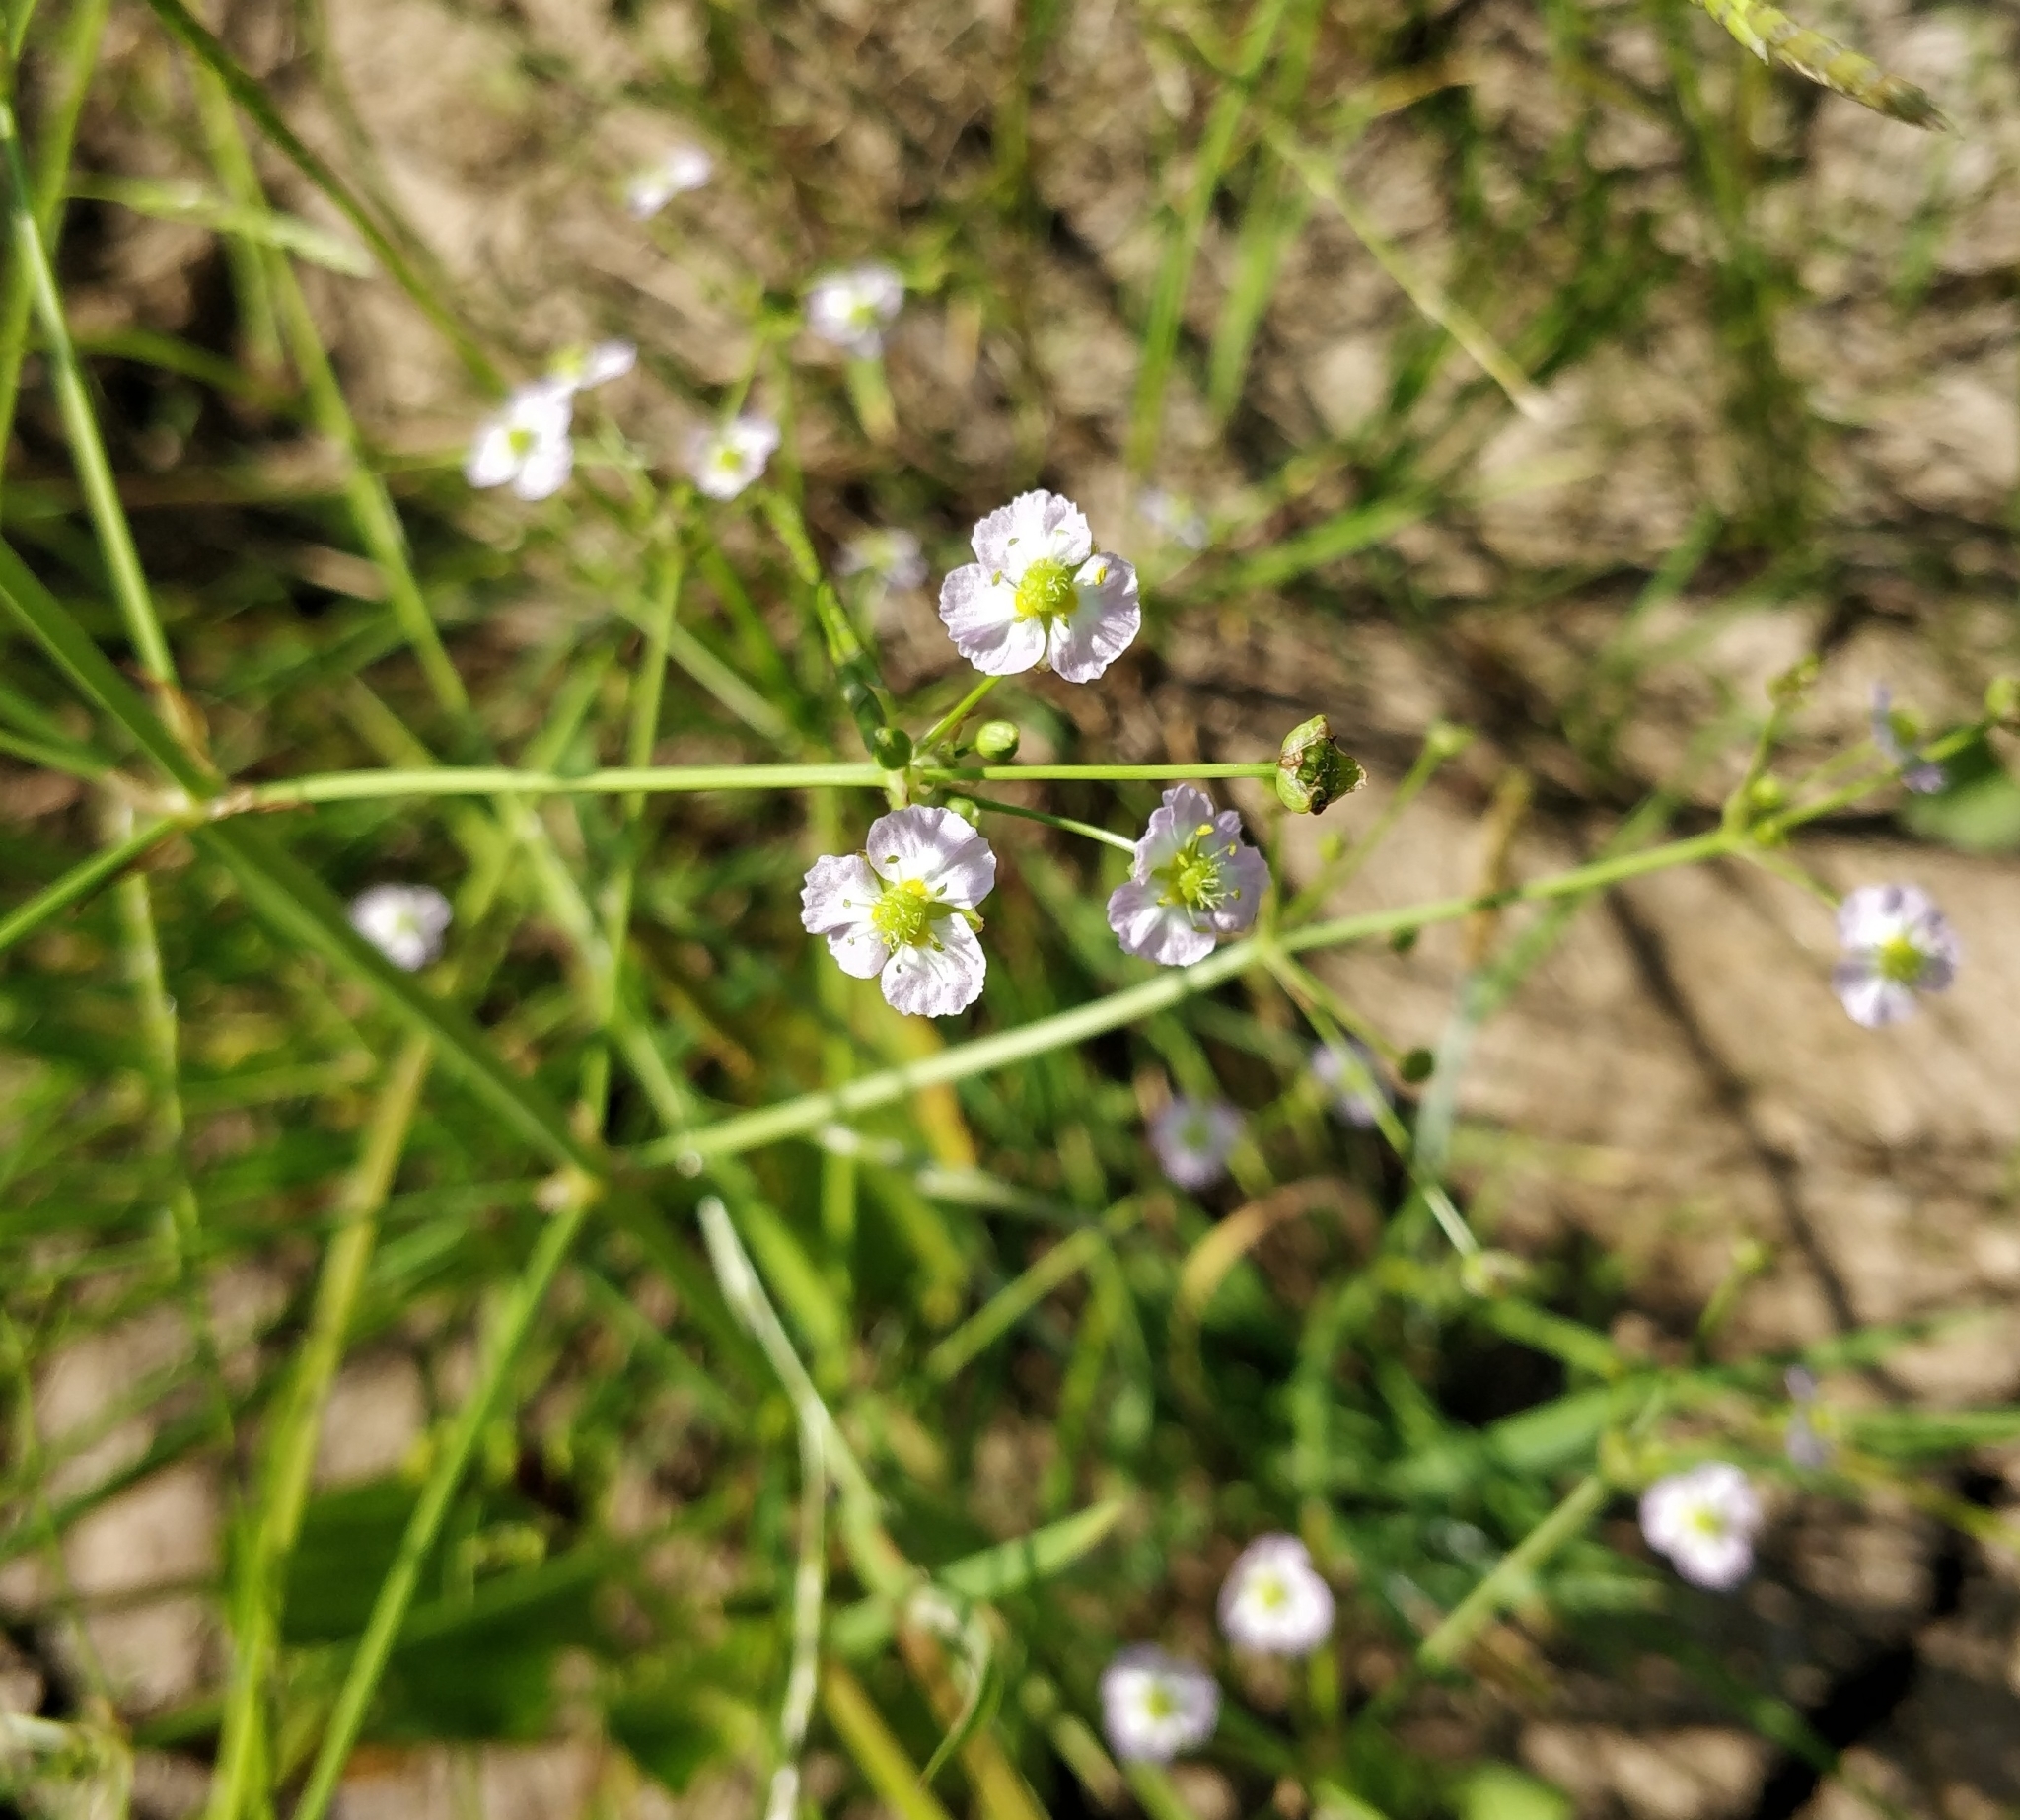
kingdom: Plantae
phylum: Tracheophyta
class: Liliopsida
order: Alismatales
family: Alismataceae
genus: Alisma
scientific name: Alisma plantago-aquatica
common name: Water-plantain
